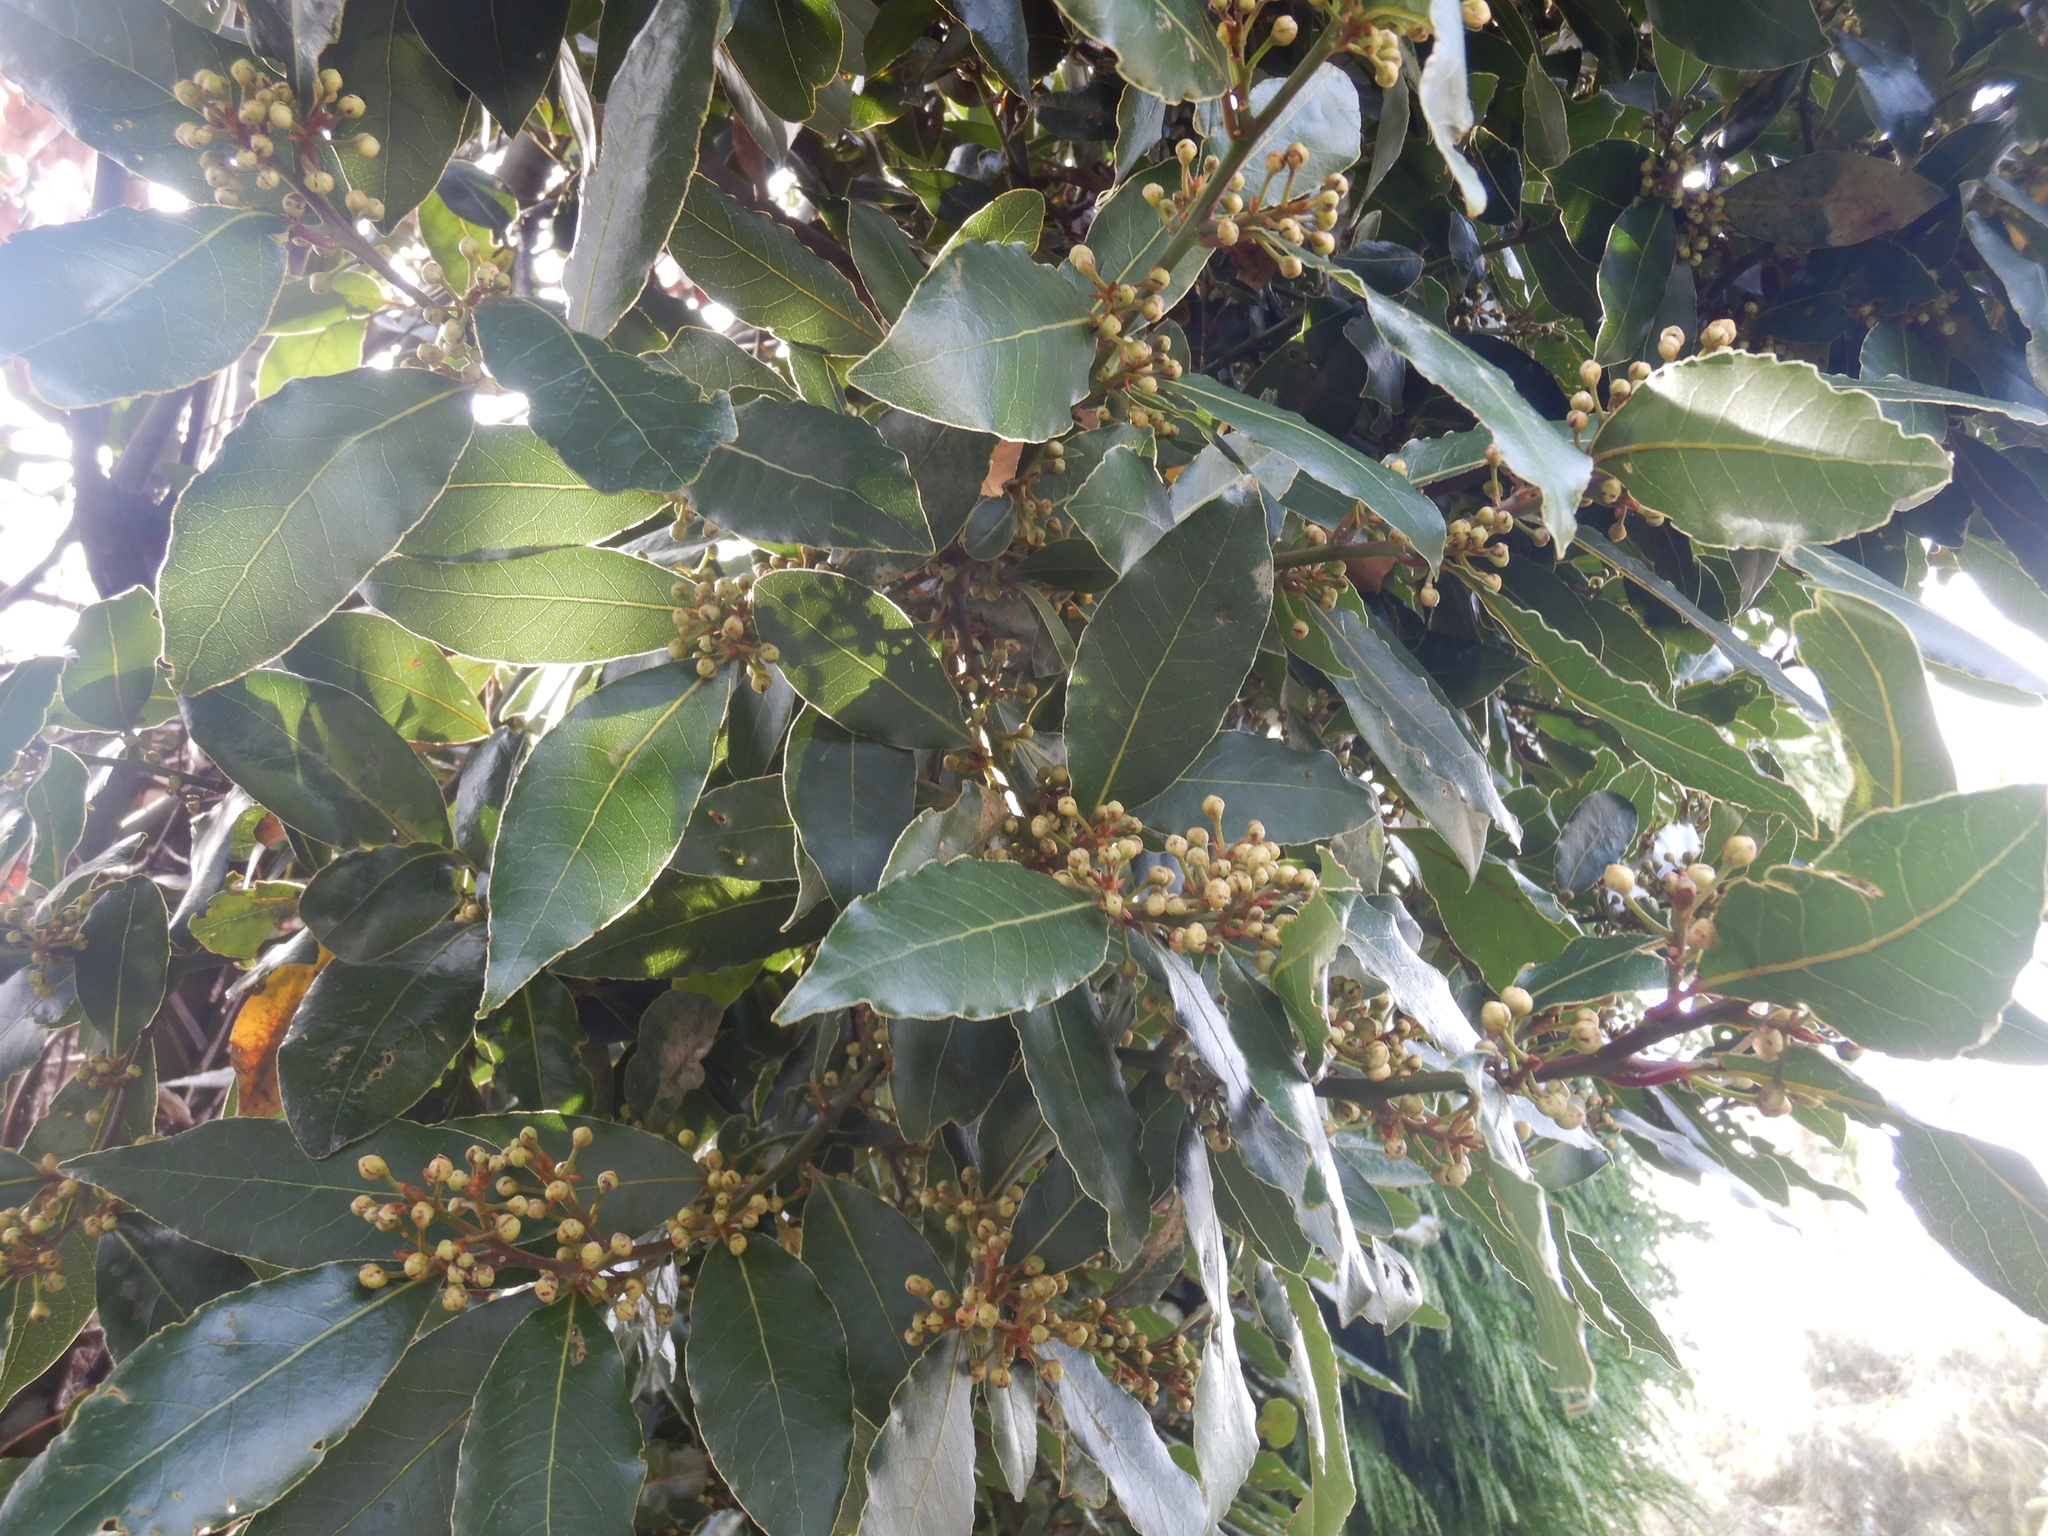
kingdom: Plantae
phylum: Tracheophyta
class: Magnoliopsida
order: Laurales
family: Lauraceae
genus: Laurus
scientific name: Laurus nobilis
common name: Bay
